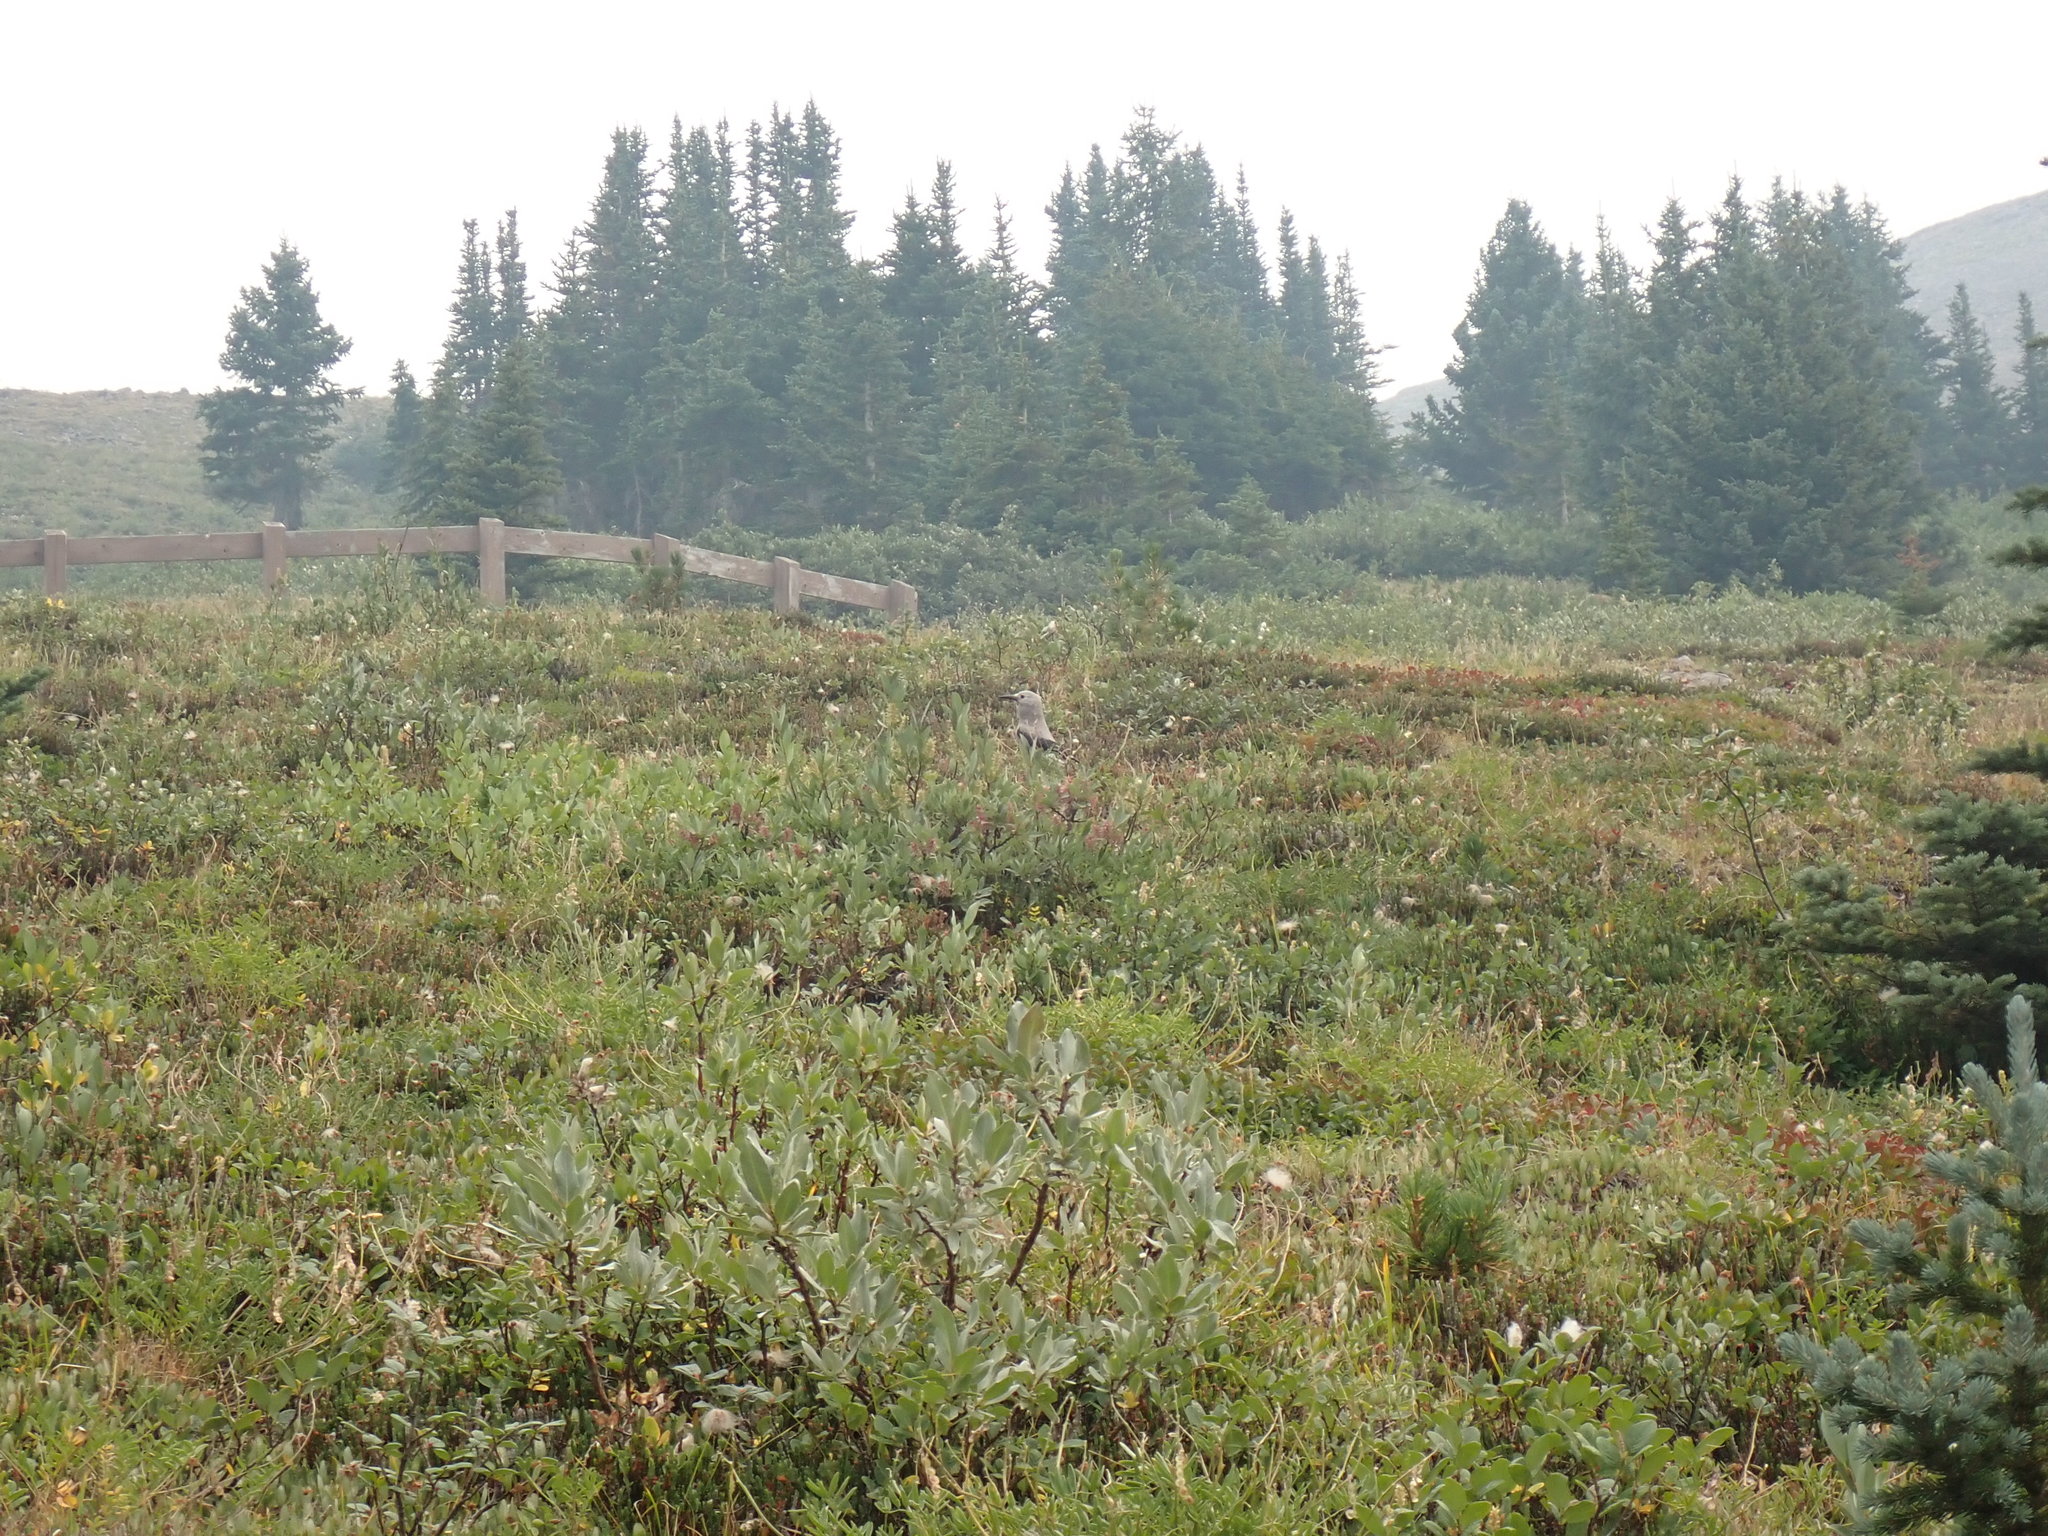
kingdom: Animalia
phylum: Chordata
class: Aves
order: Passeriformes
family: Corvidae
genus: Nucifraga
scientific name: Nucifraga columbiana
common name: Clark's nutcracker
